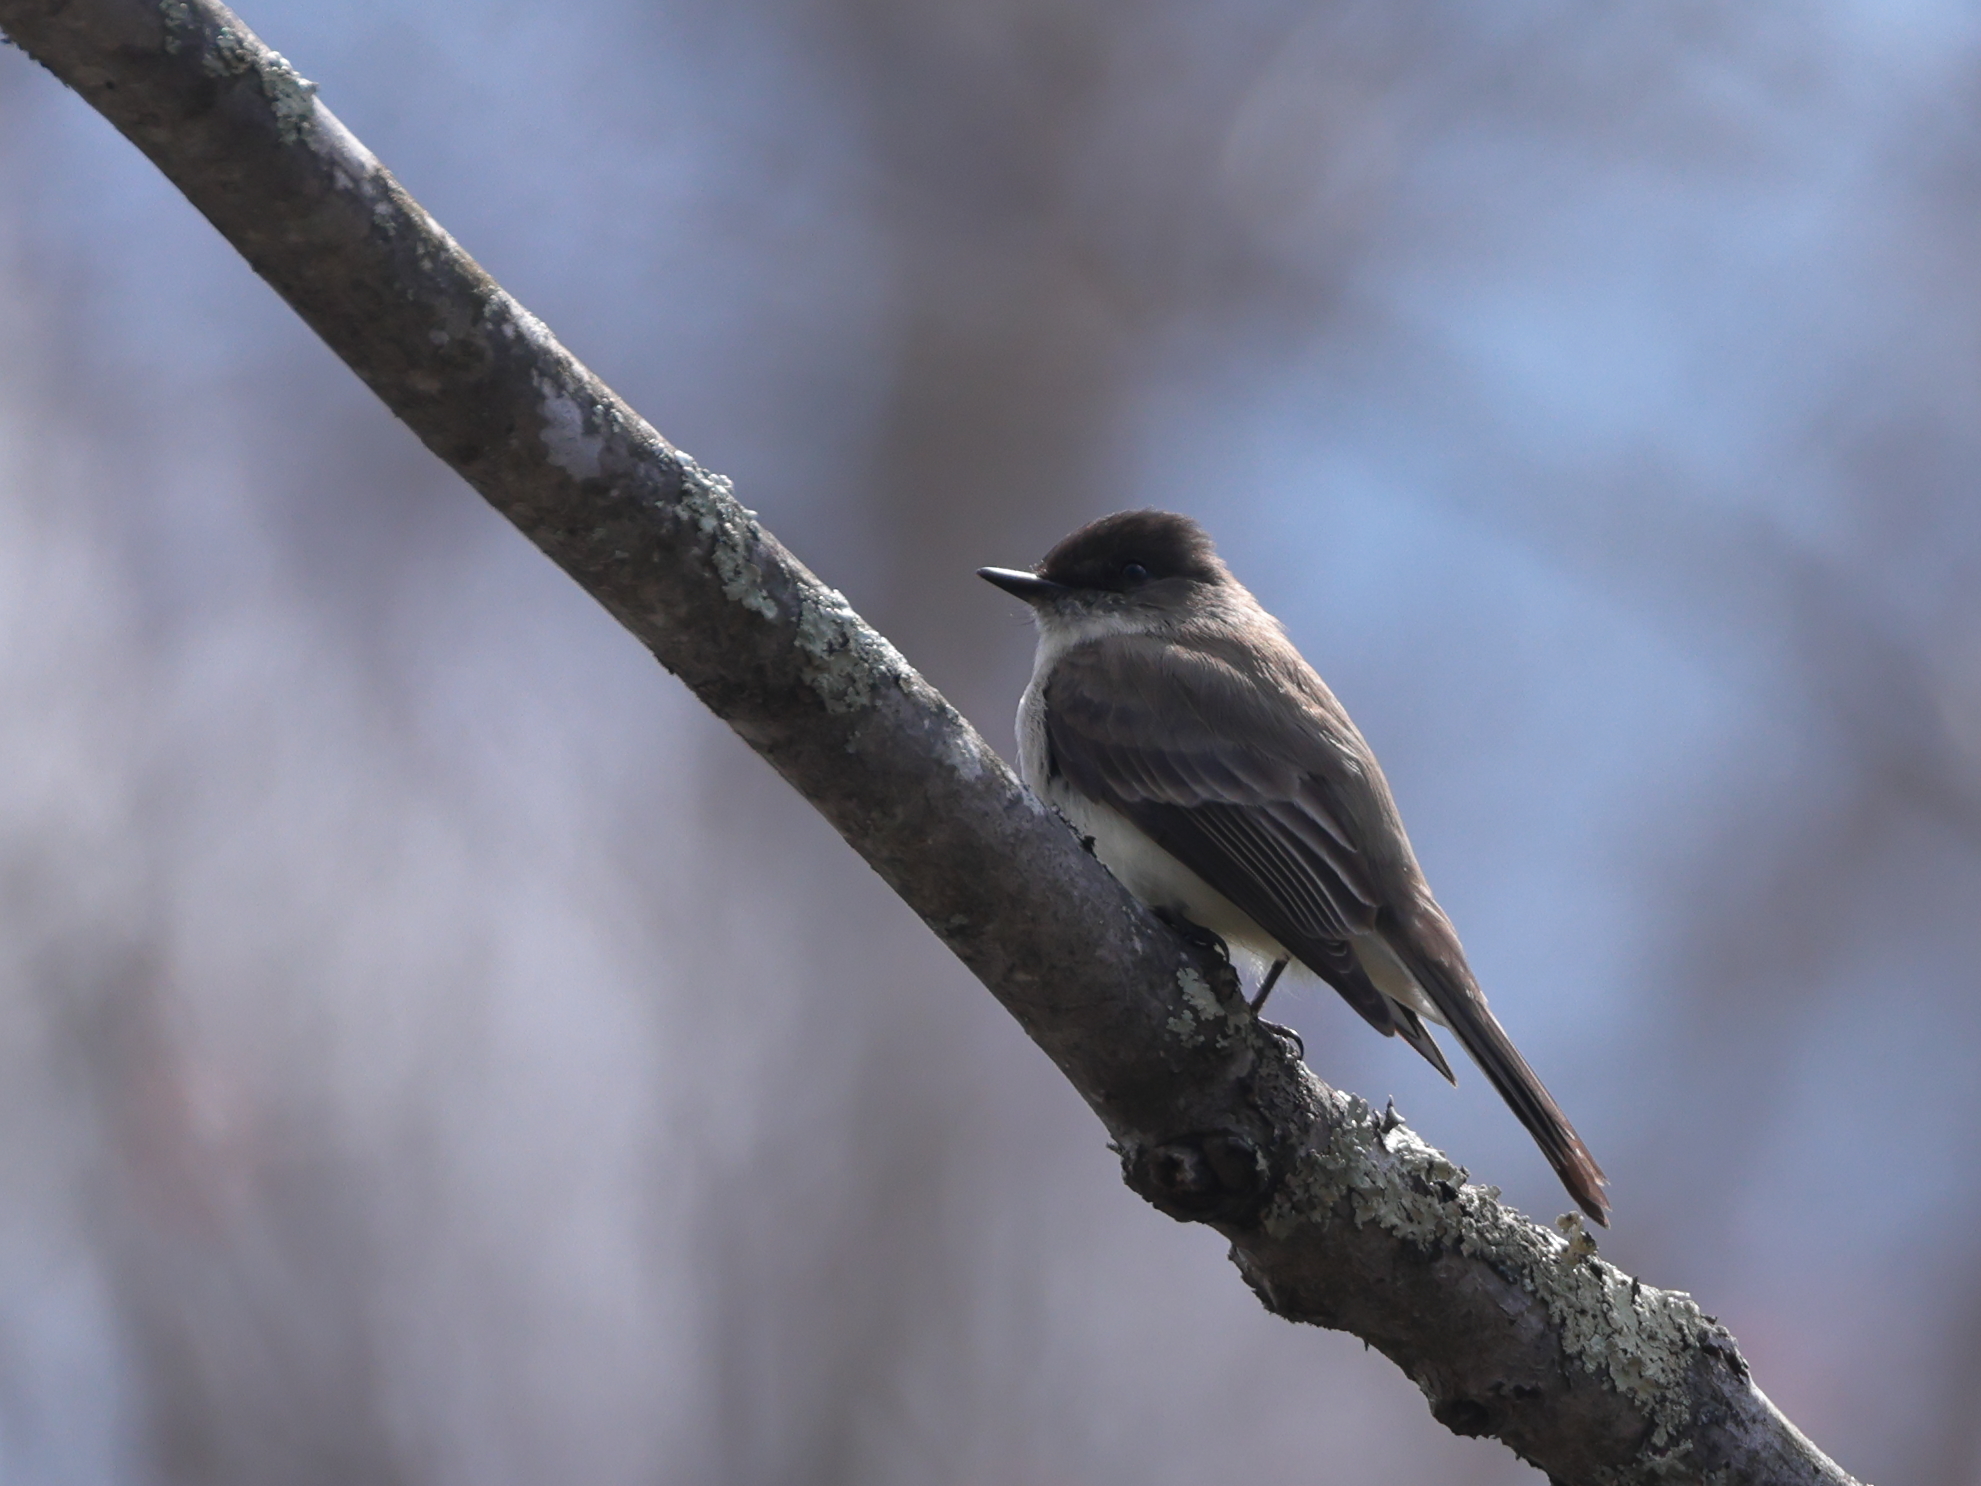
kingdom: Animalia
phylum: Chordata
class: Aves
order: Passeriformes
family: Tyrannidae
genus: Sayornis
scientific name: Sayornis phoebe
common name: Eastern phoebe
